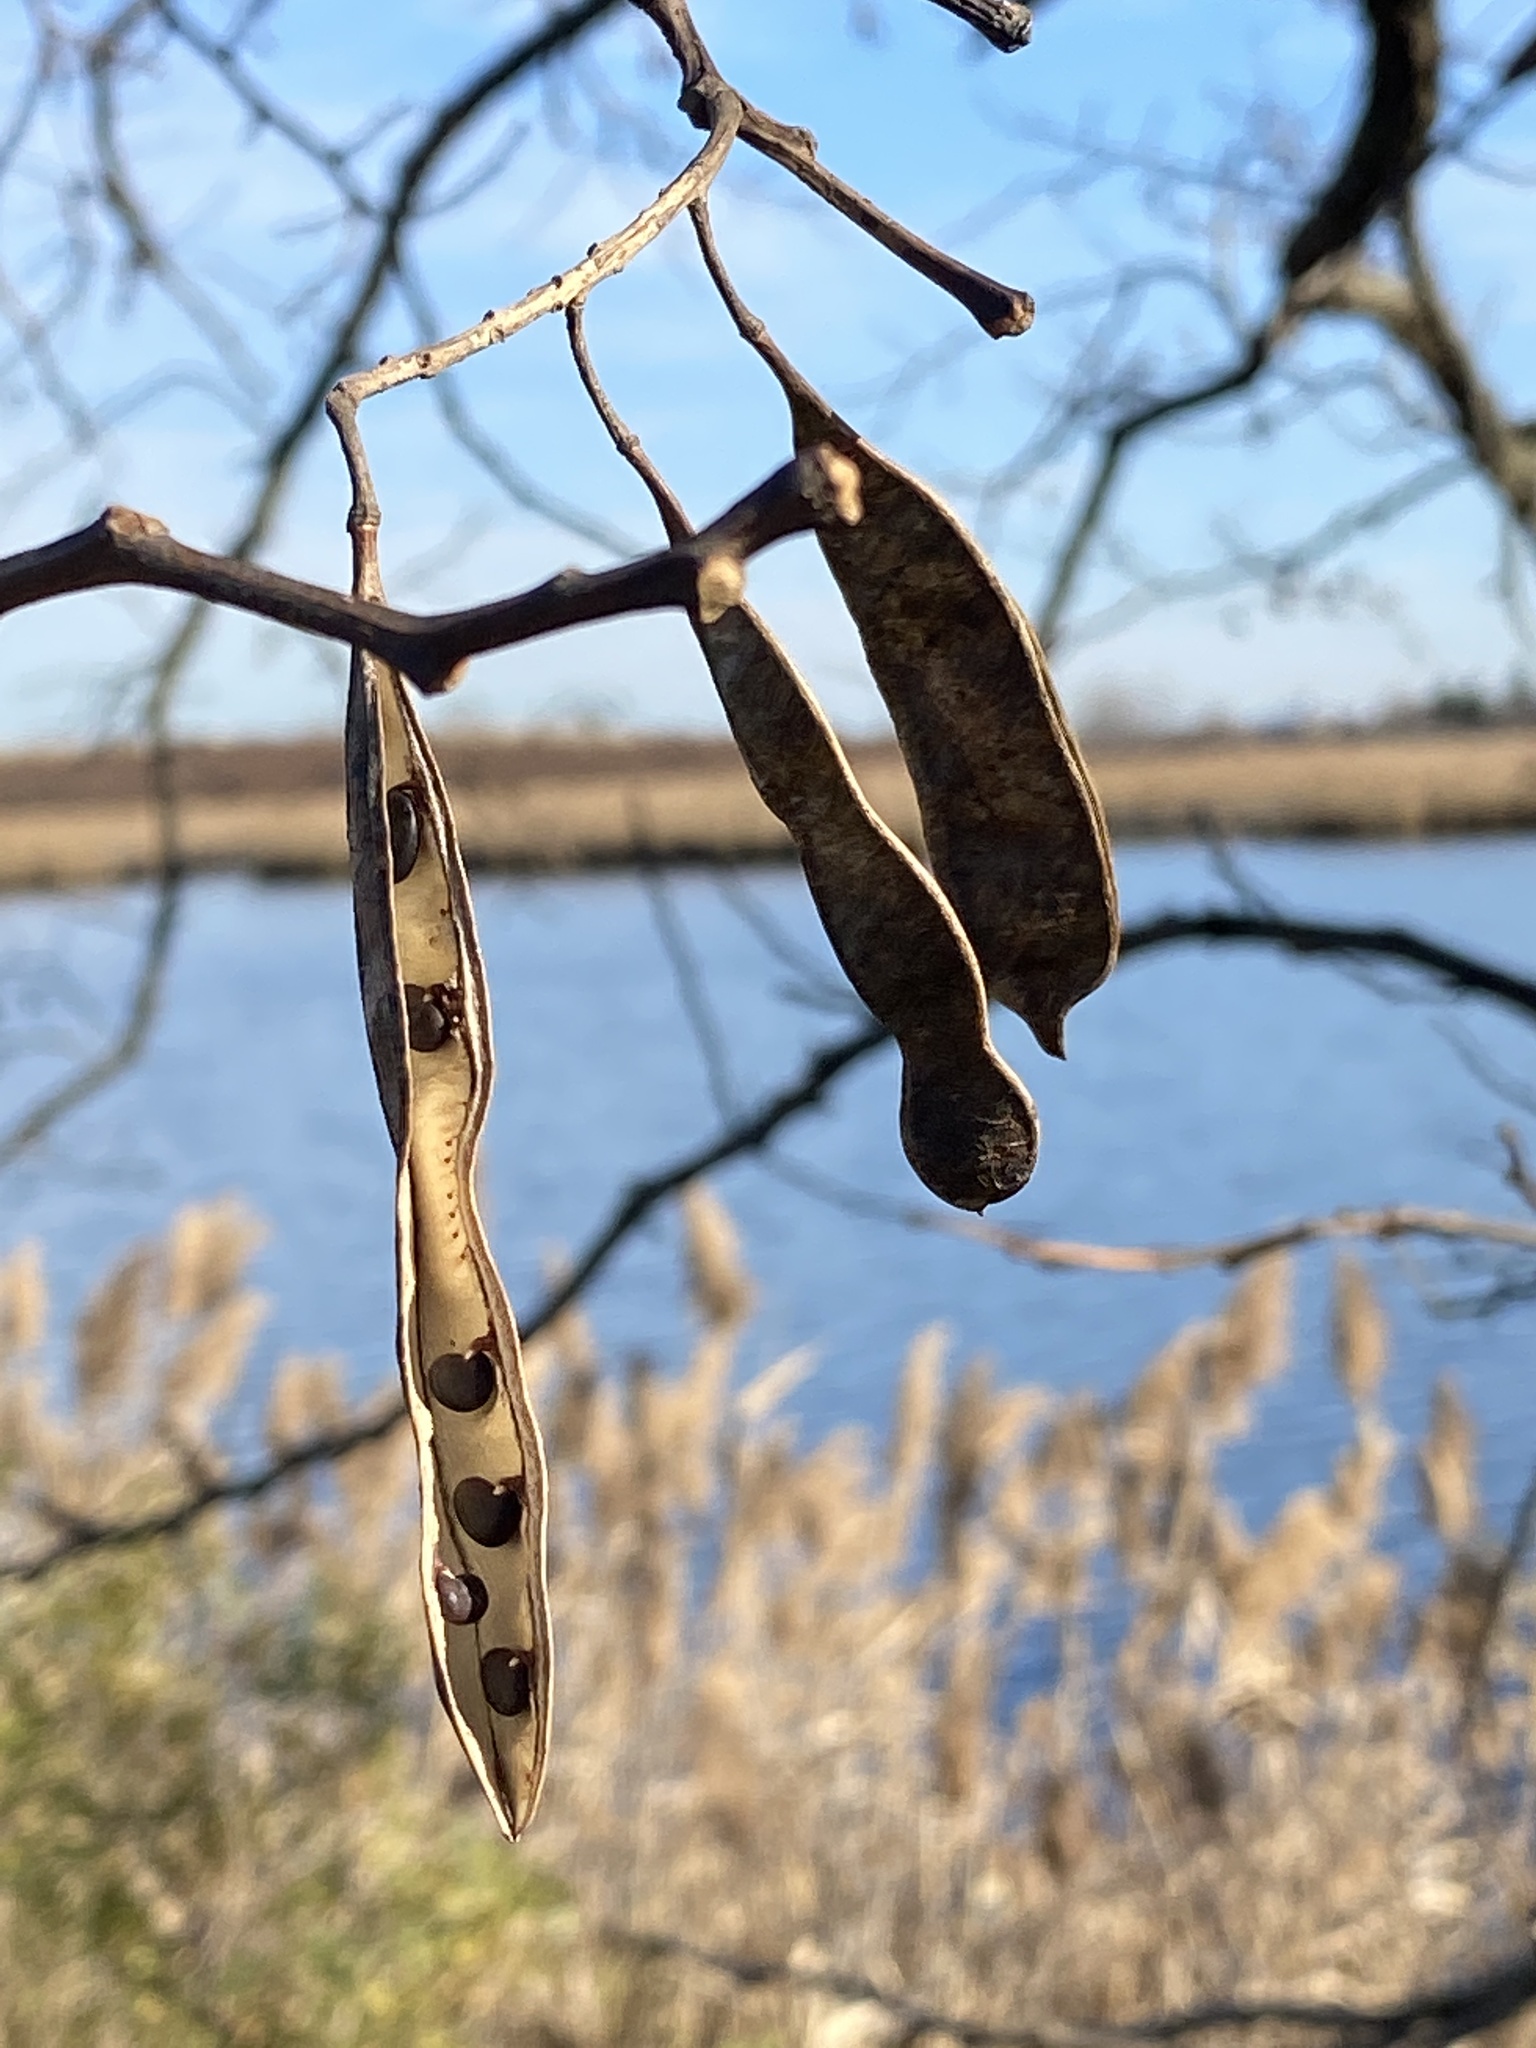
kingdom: Plantae
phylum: Tracheophyta
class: Magnoliopsida
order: Fabales
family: Fabaceae
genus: Robinia
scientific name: Robinia pseudoacacia
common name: Black locust
